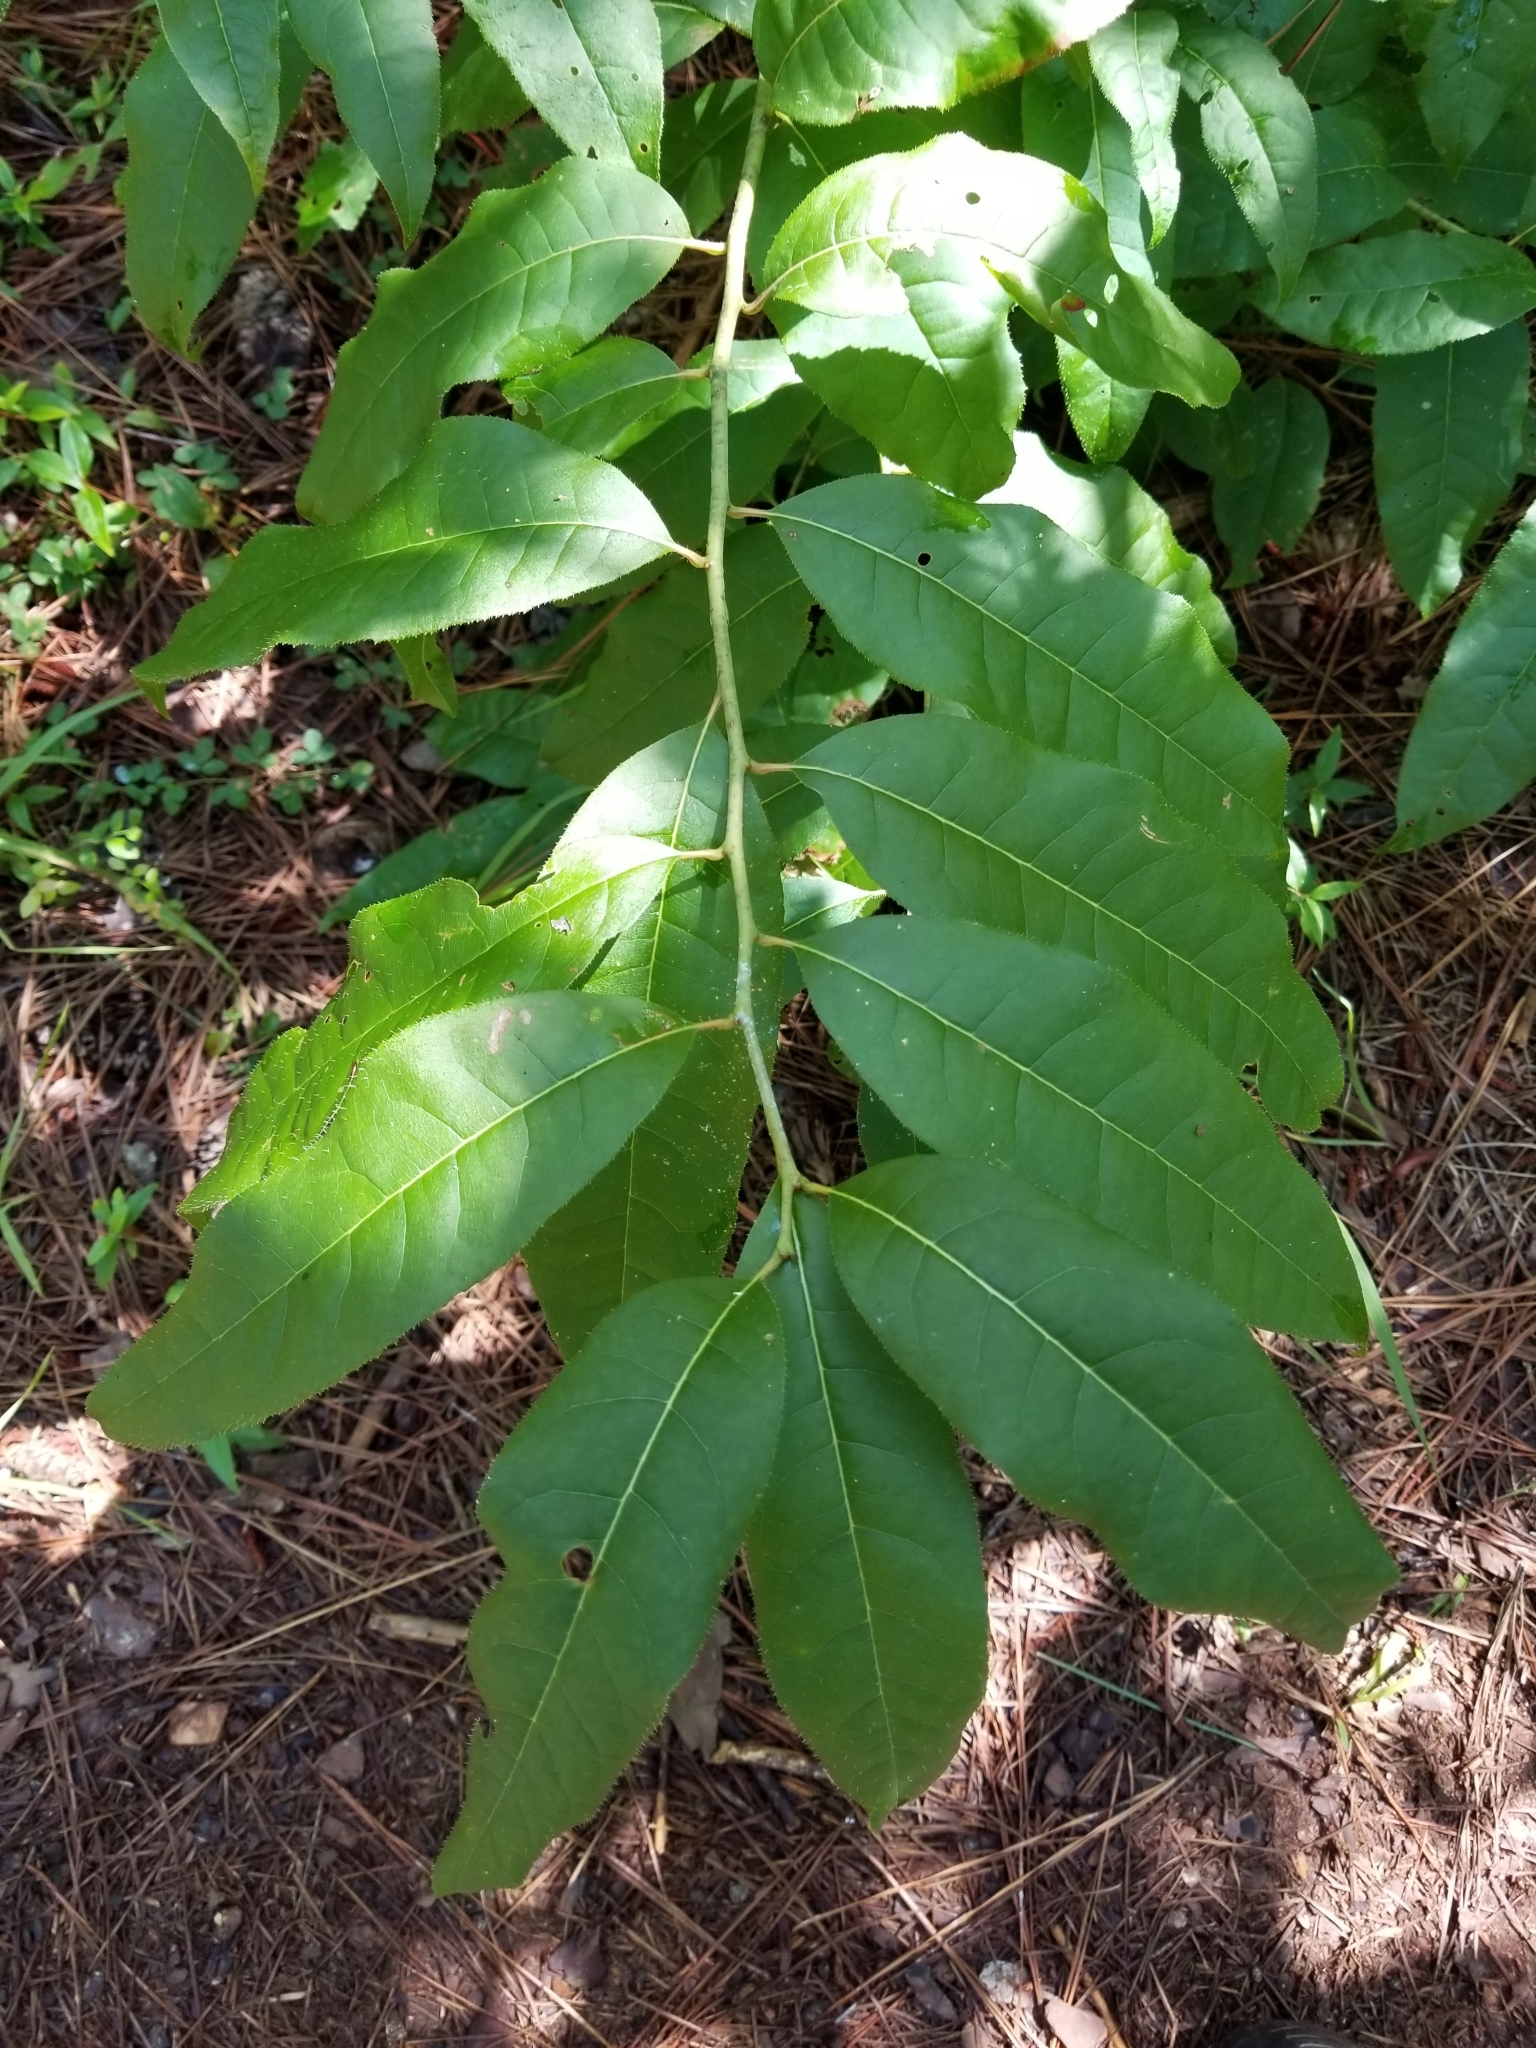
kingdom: Plantae
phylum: Tracheophyta
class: Magnoliopsida
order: Ericales
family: Ericaceae
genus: Oxydendrum
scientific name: Oxydendrum arboreum
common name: Sourwood
